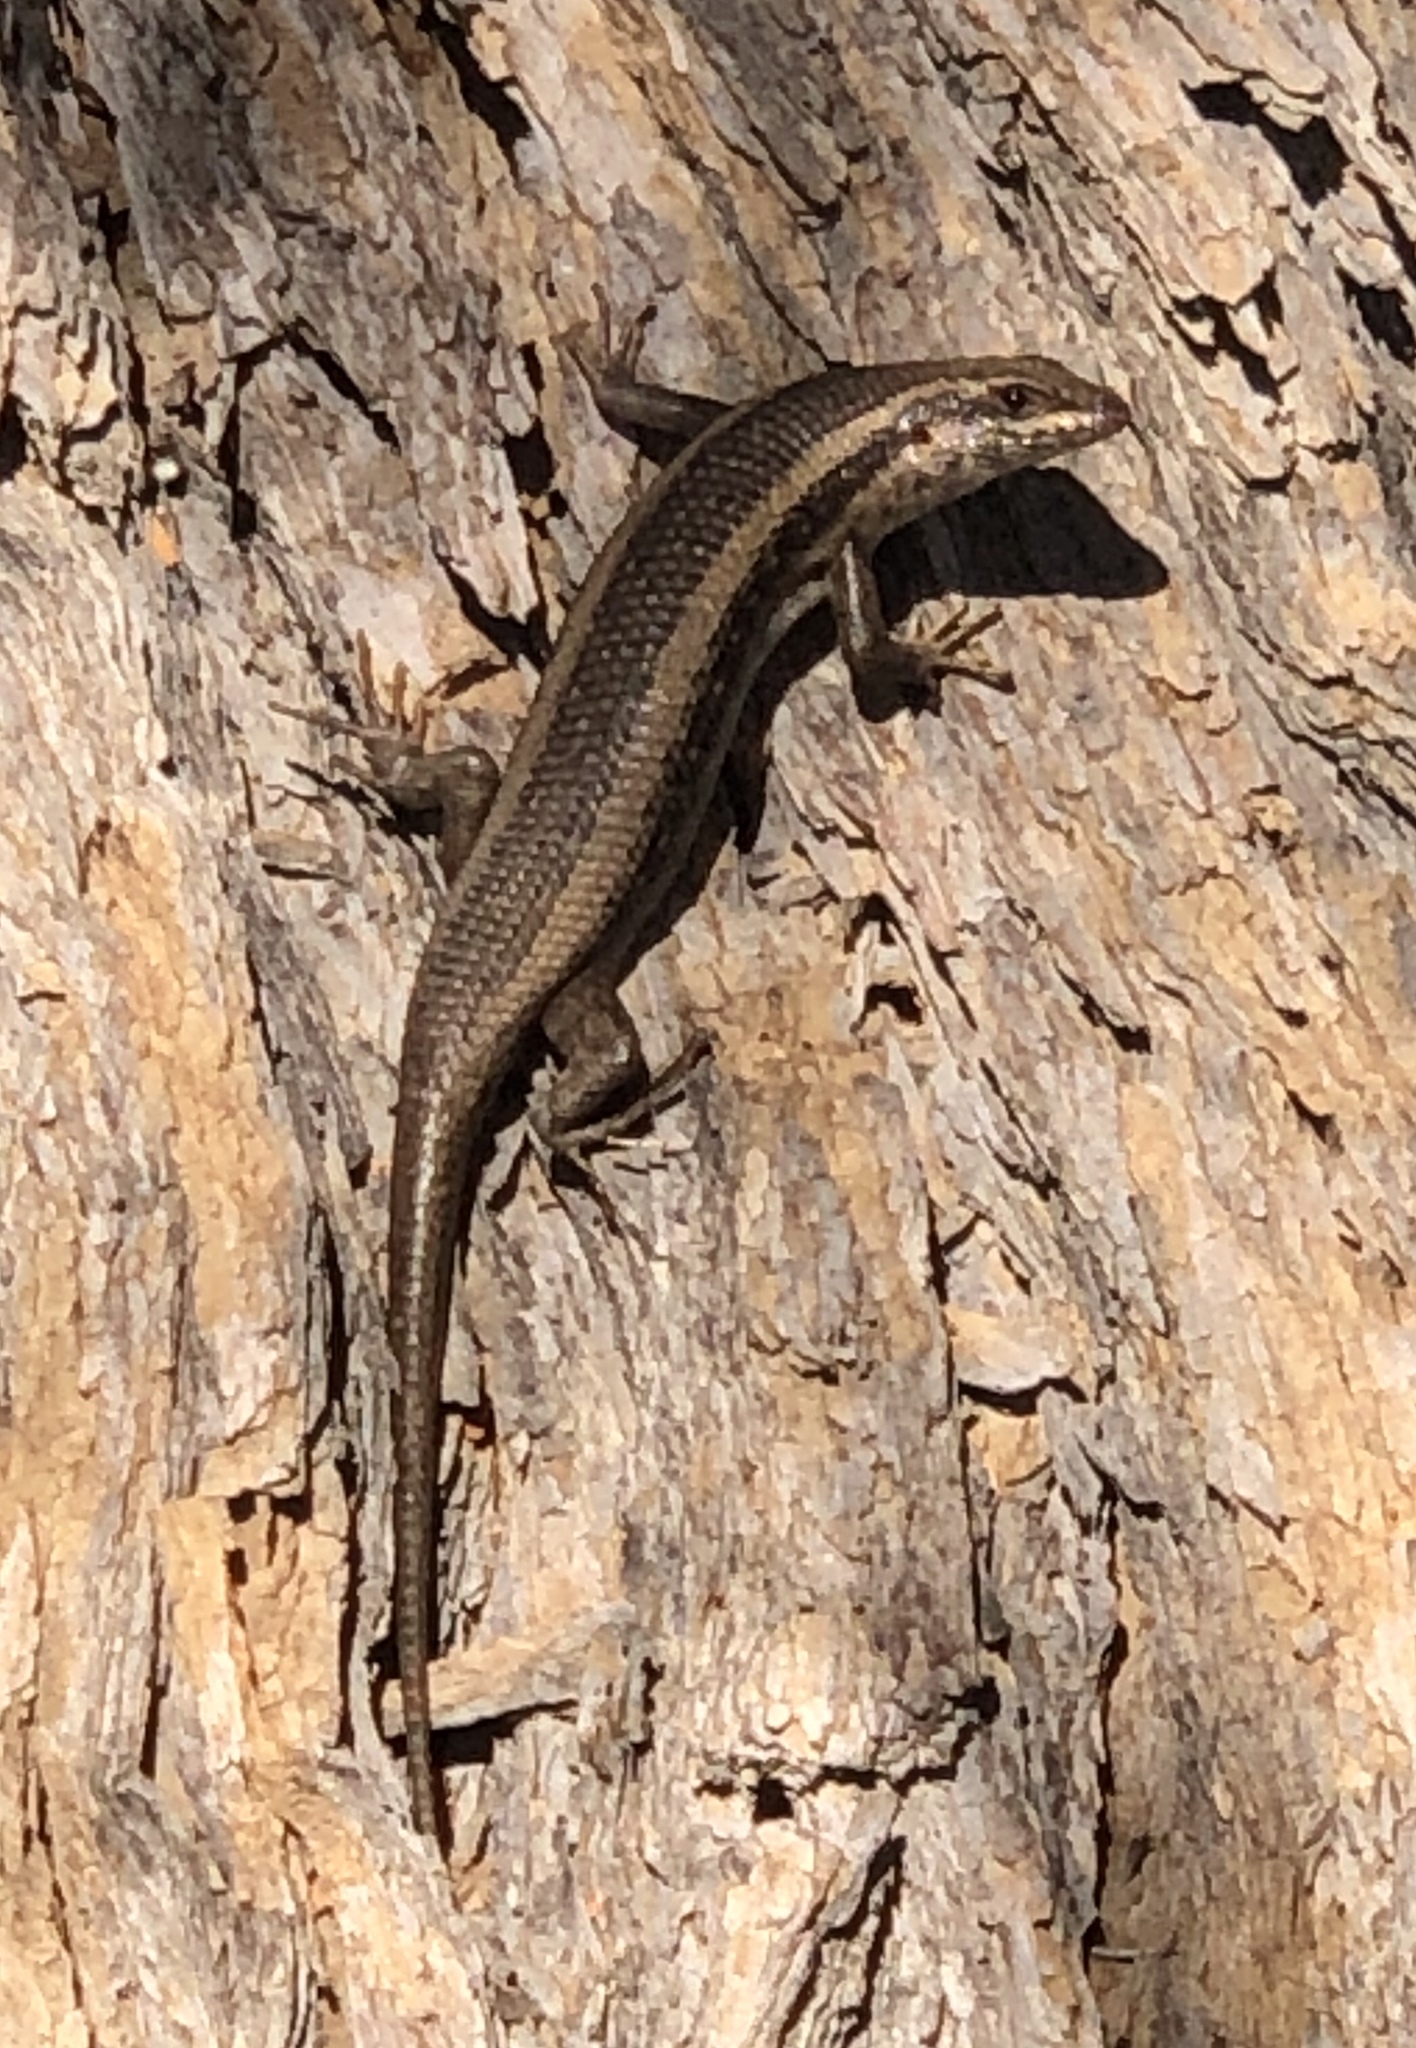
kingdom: Animalia
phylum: Chordata
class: Squamata
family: Scincidae
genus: Trachylepis
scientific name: Trachylepis spilogaster
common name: Kalahari tree skink
